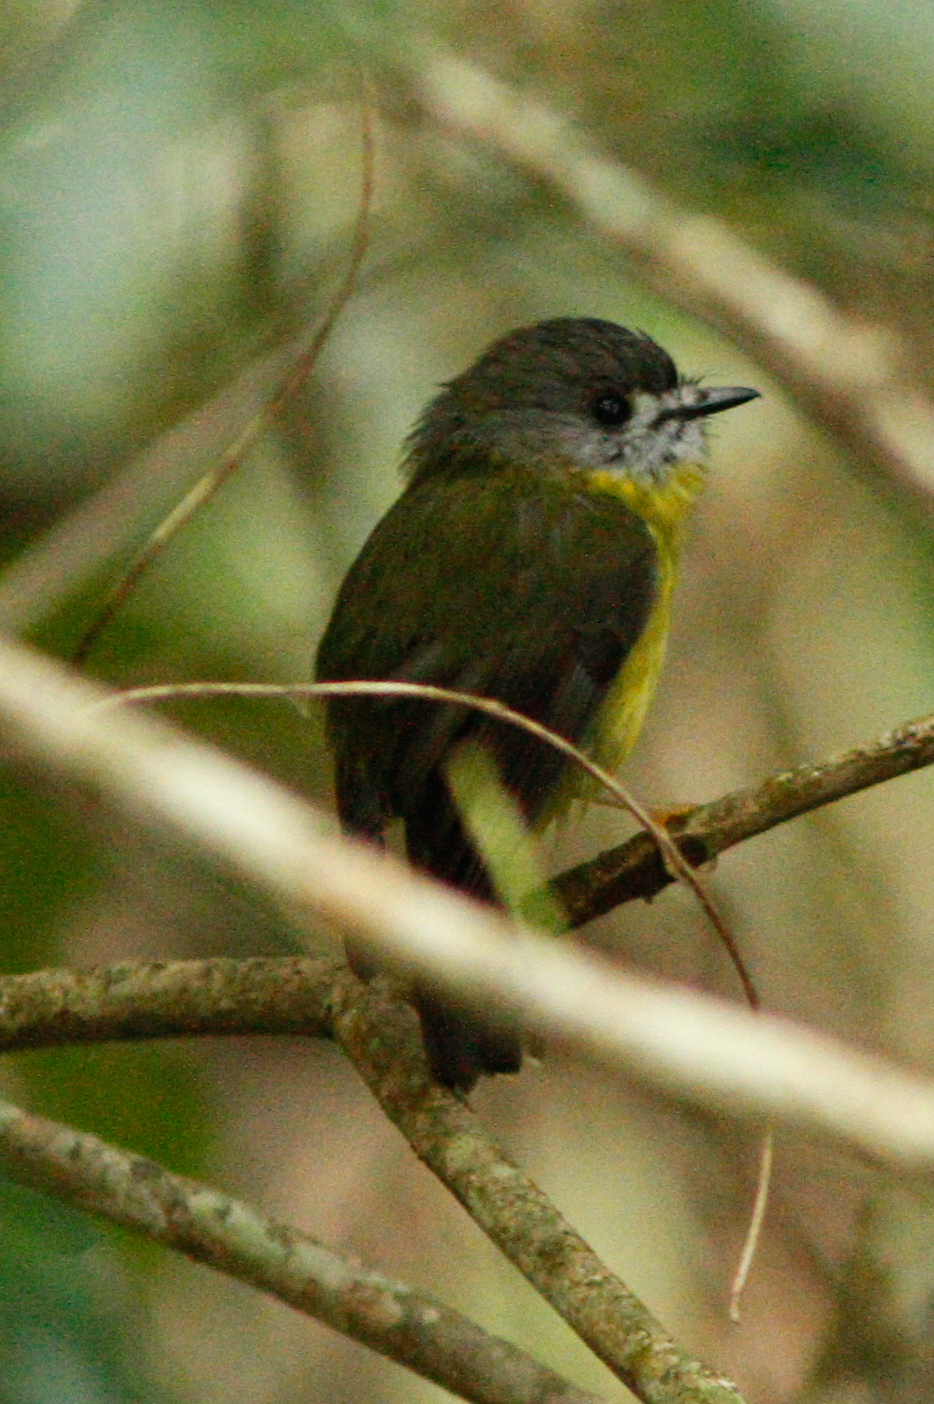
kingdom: Animalia
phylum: Chordata
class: Aves
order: Passeriformes
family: Petroicidae
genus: Eopsaltria
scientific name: Eopsaltria
